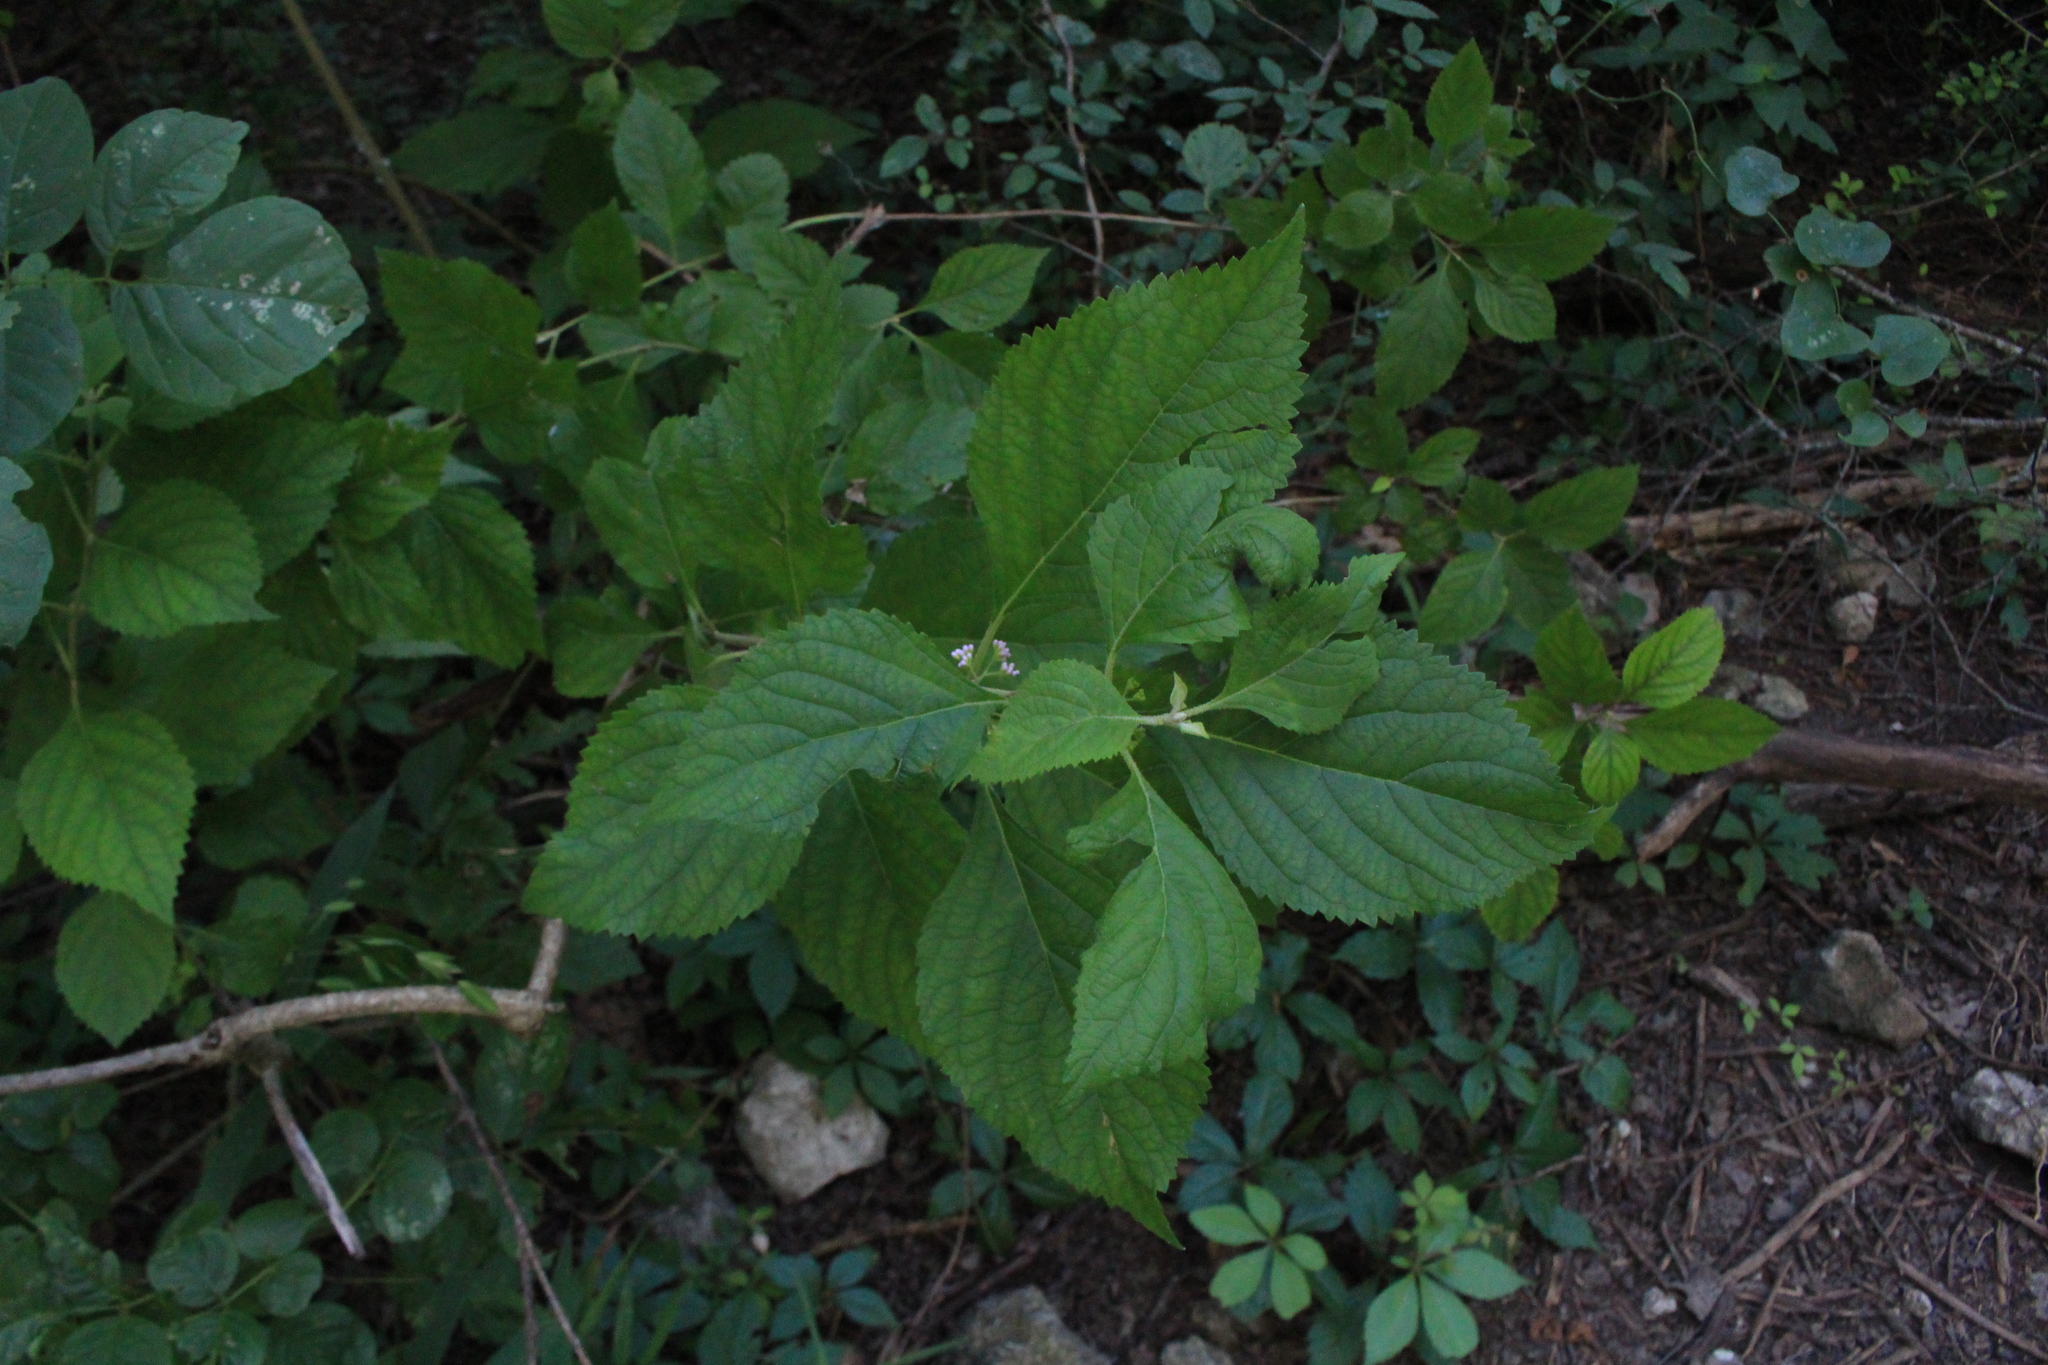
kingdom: Plantae
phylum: Tracheophyta
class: Magnoliopsida
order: Lamiales
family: Lamiaceae
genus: Callicarpa
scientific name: Callicarpa americana
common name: American beautyberry
